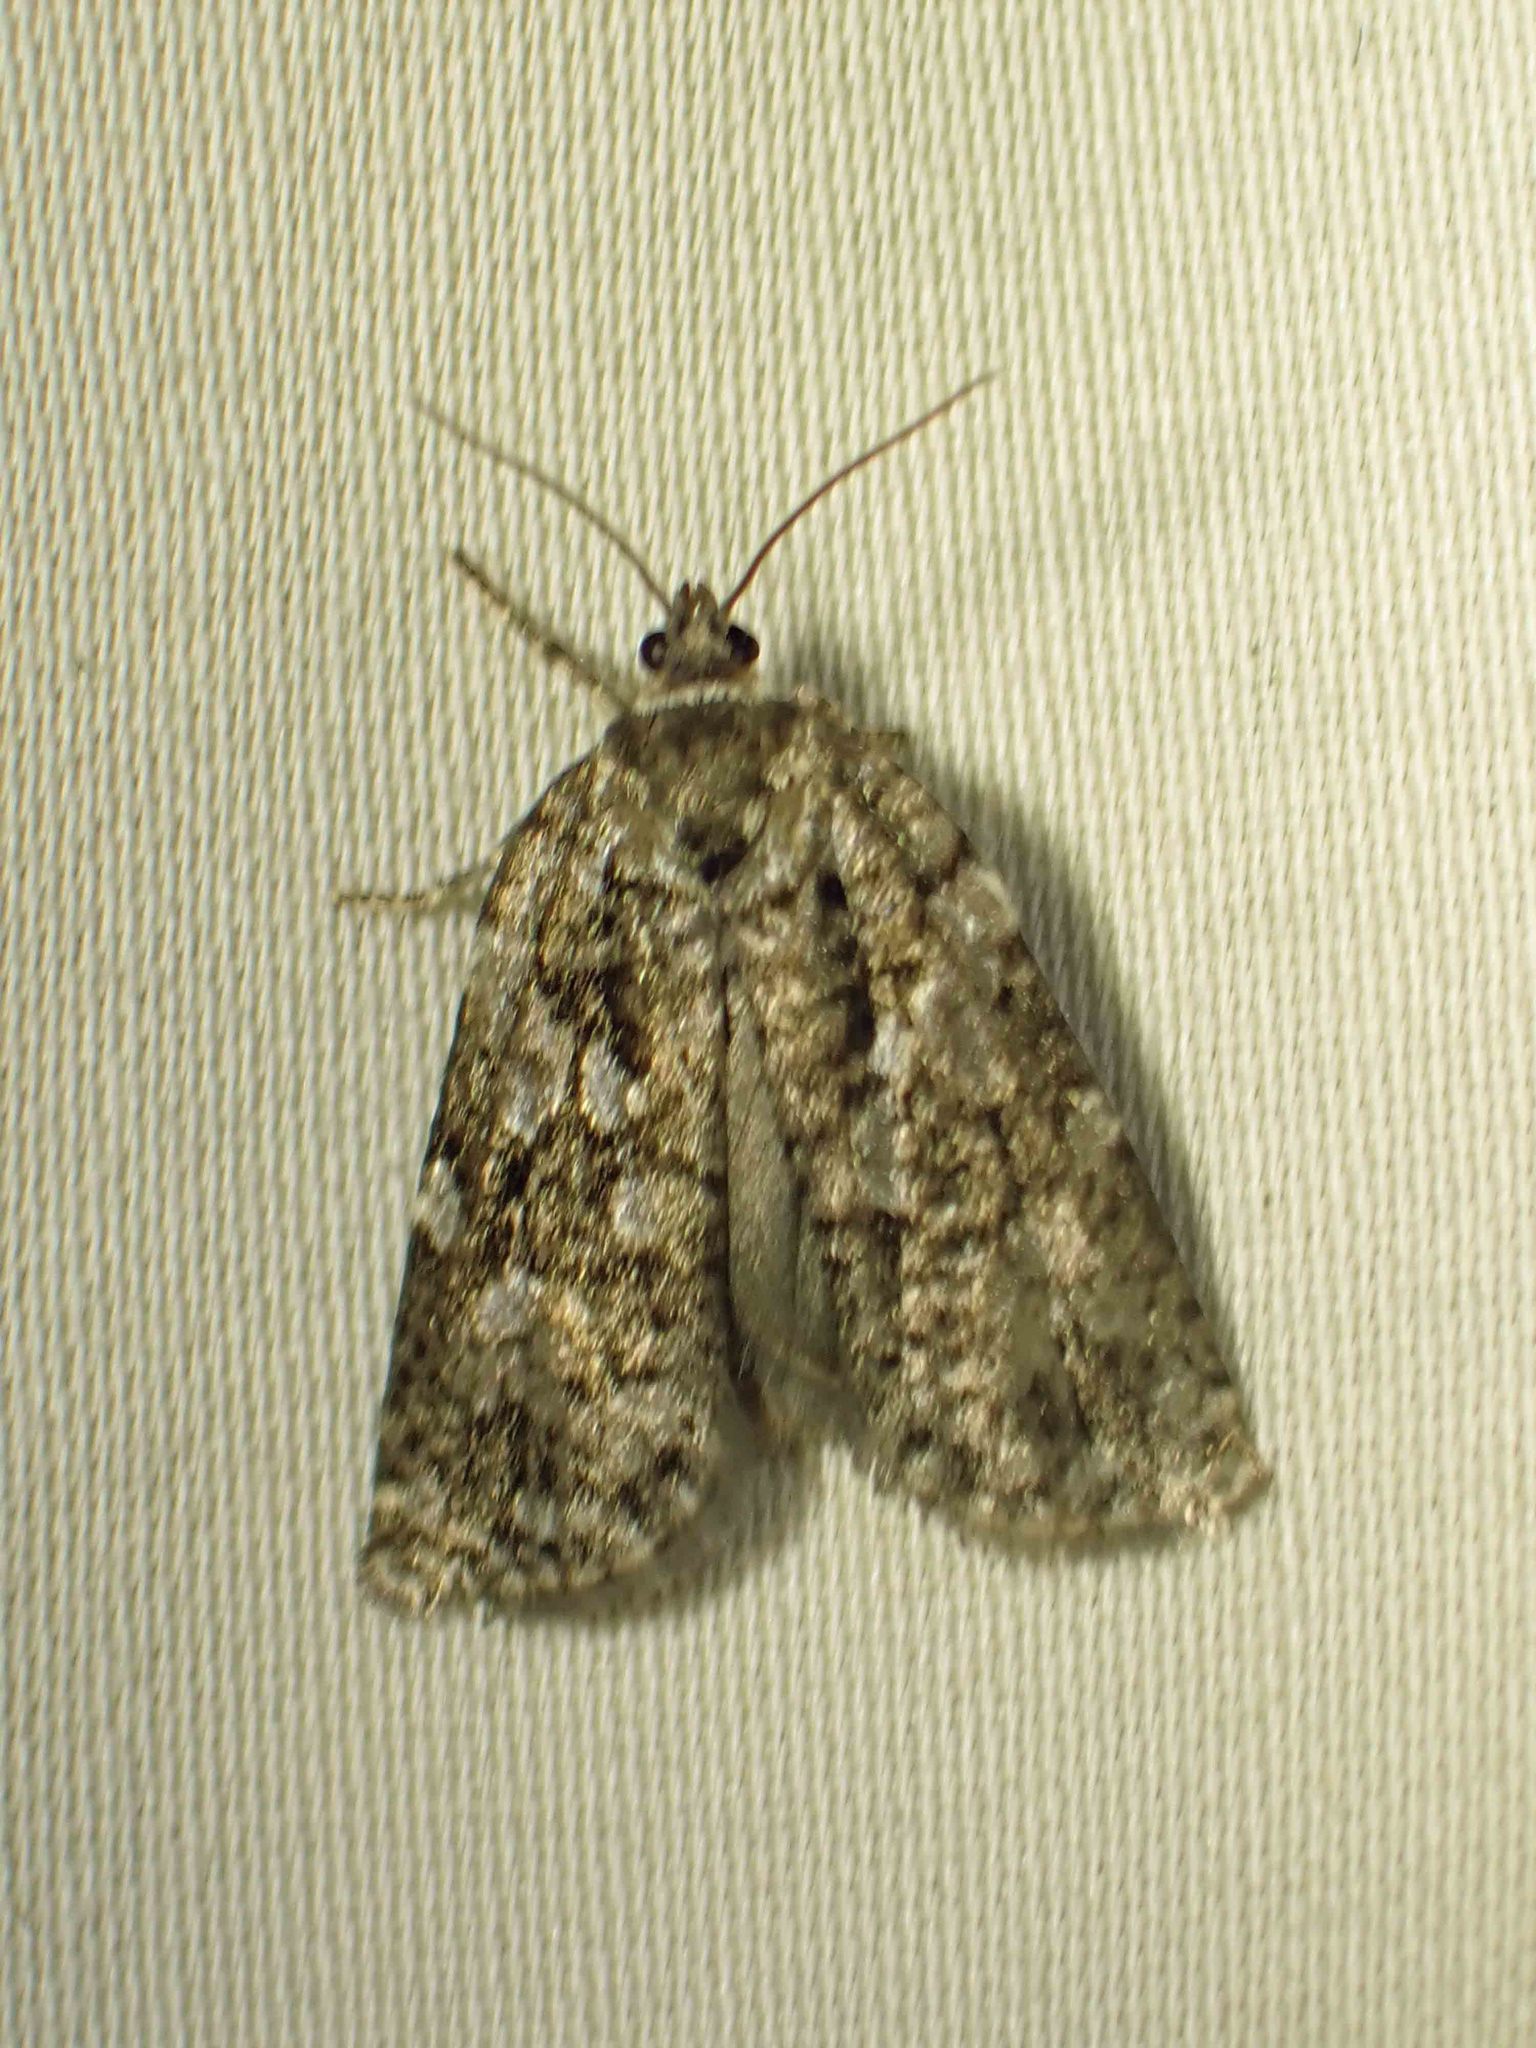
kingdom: Animalia
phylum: Arthropoda
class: Insecta
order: Lepidoptera
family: Tortricidae
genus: Choristoneura
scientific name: Choristoneura fumiferana
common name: Spruce budworm
